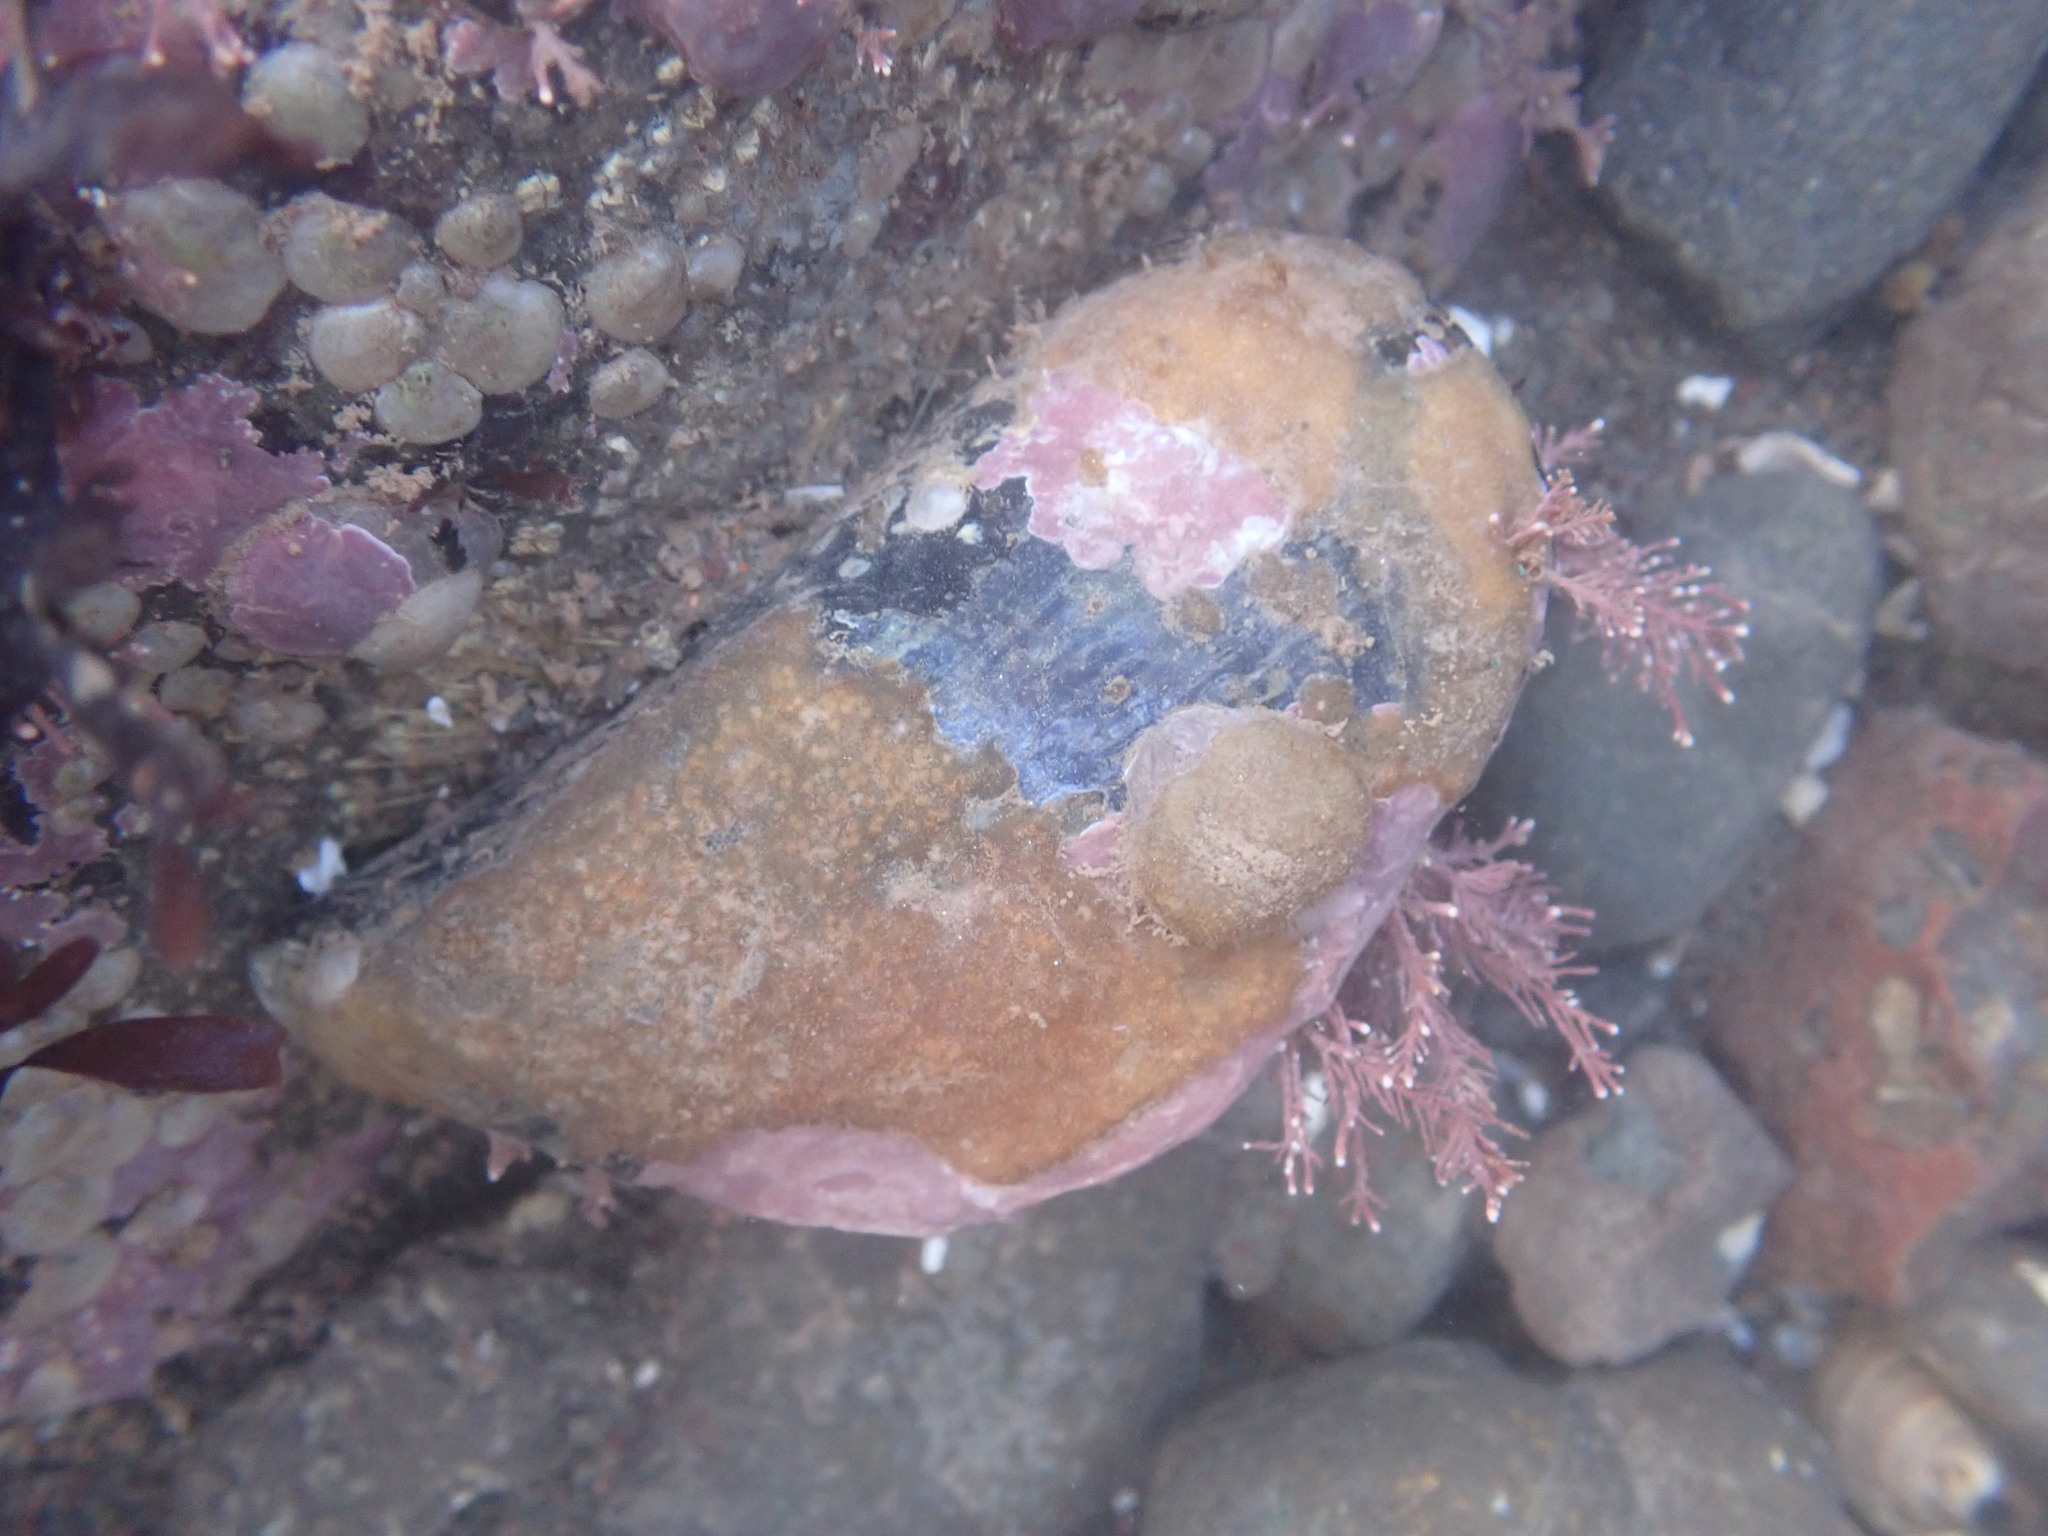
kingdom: Animalia
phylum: Mollusca
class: Bivalvia
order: Mytilida
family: Mytilidae
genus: Mytilus
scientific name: Mytilus edulis
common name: Blue mussel
